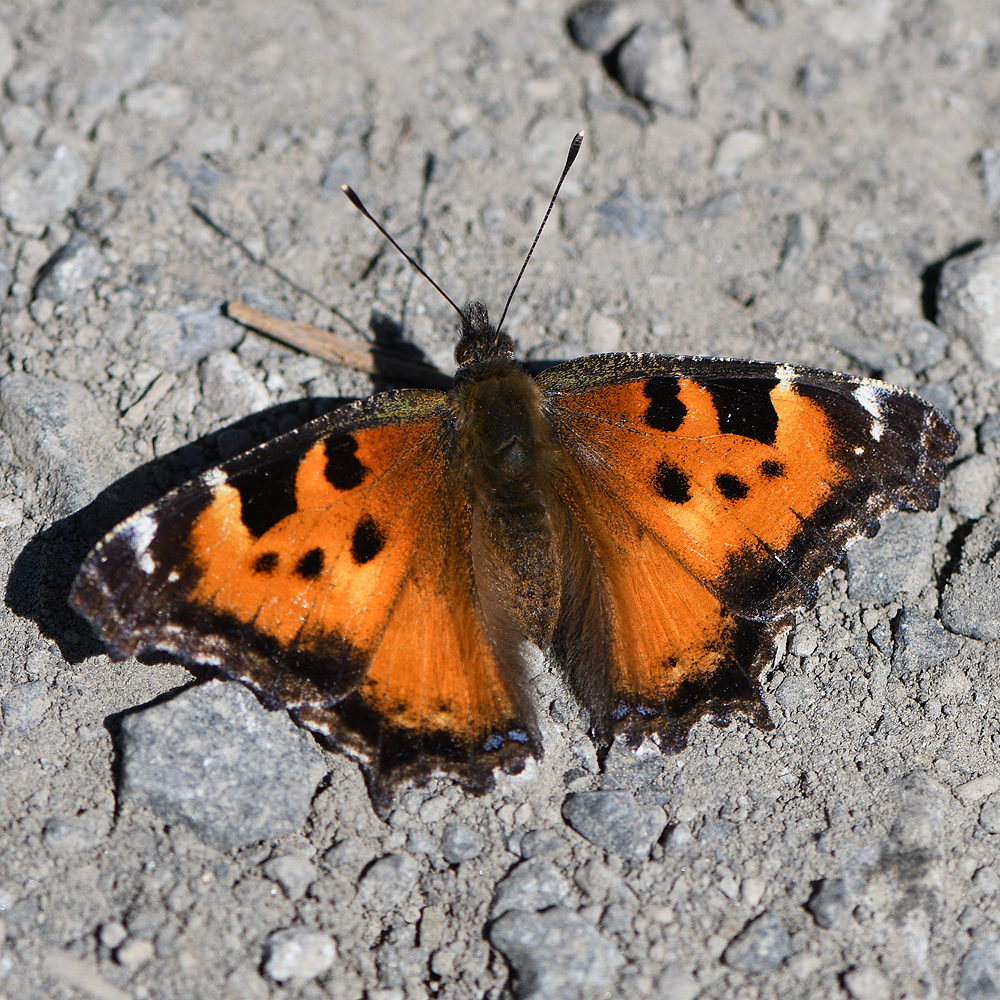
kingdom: Animalia
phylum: Arthropoda
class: Insecta
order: Lepidoptera
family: Nymphalidae
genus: Nymphalis
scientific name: Nymphalis californica
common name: California tortoiseshell
